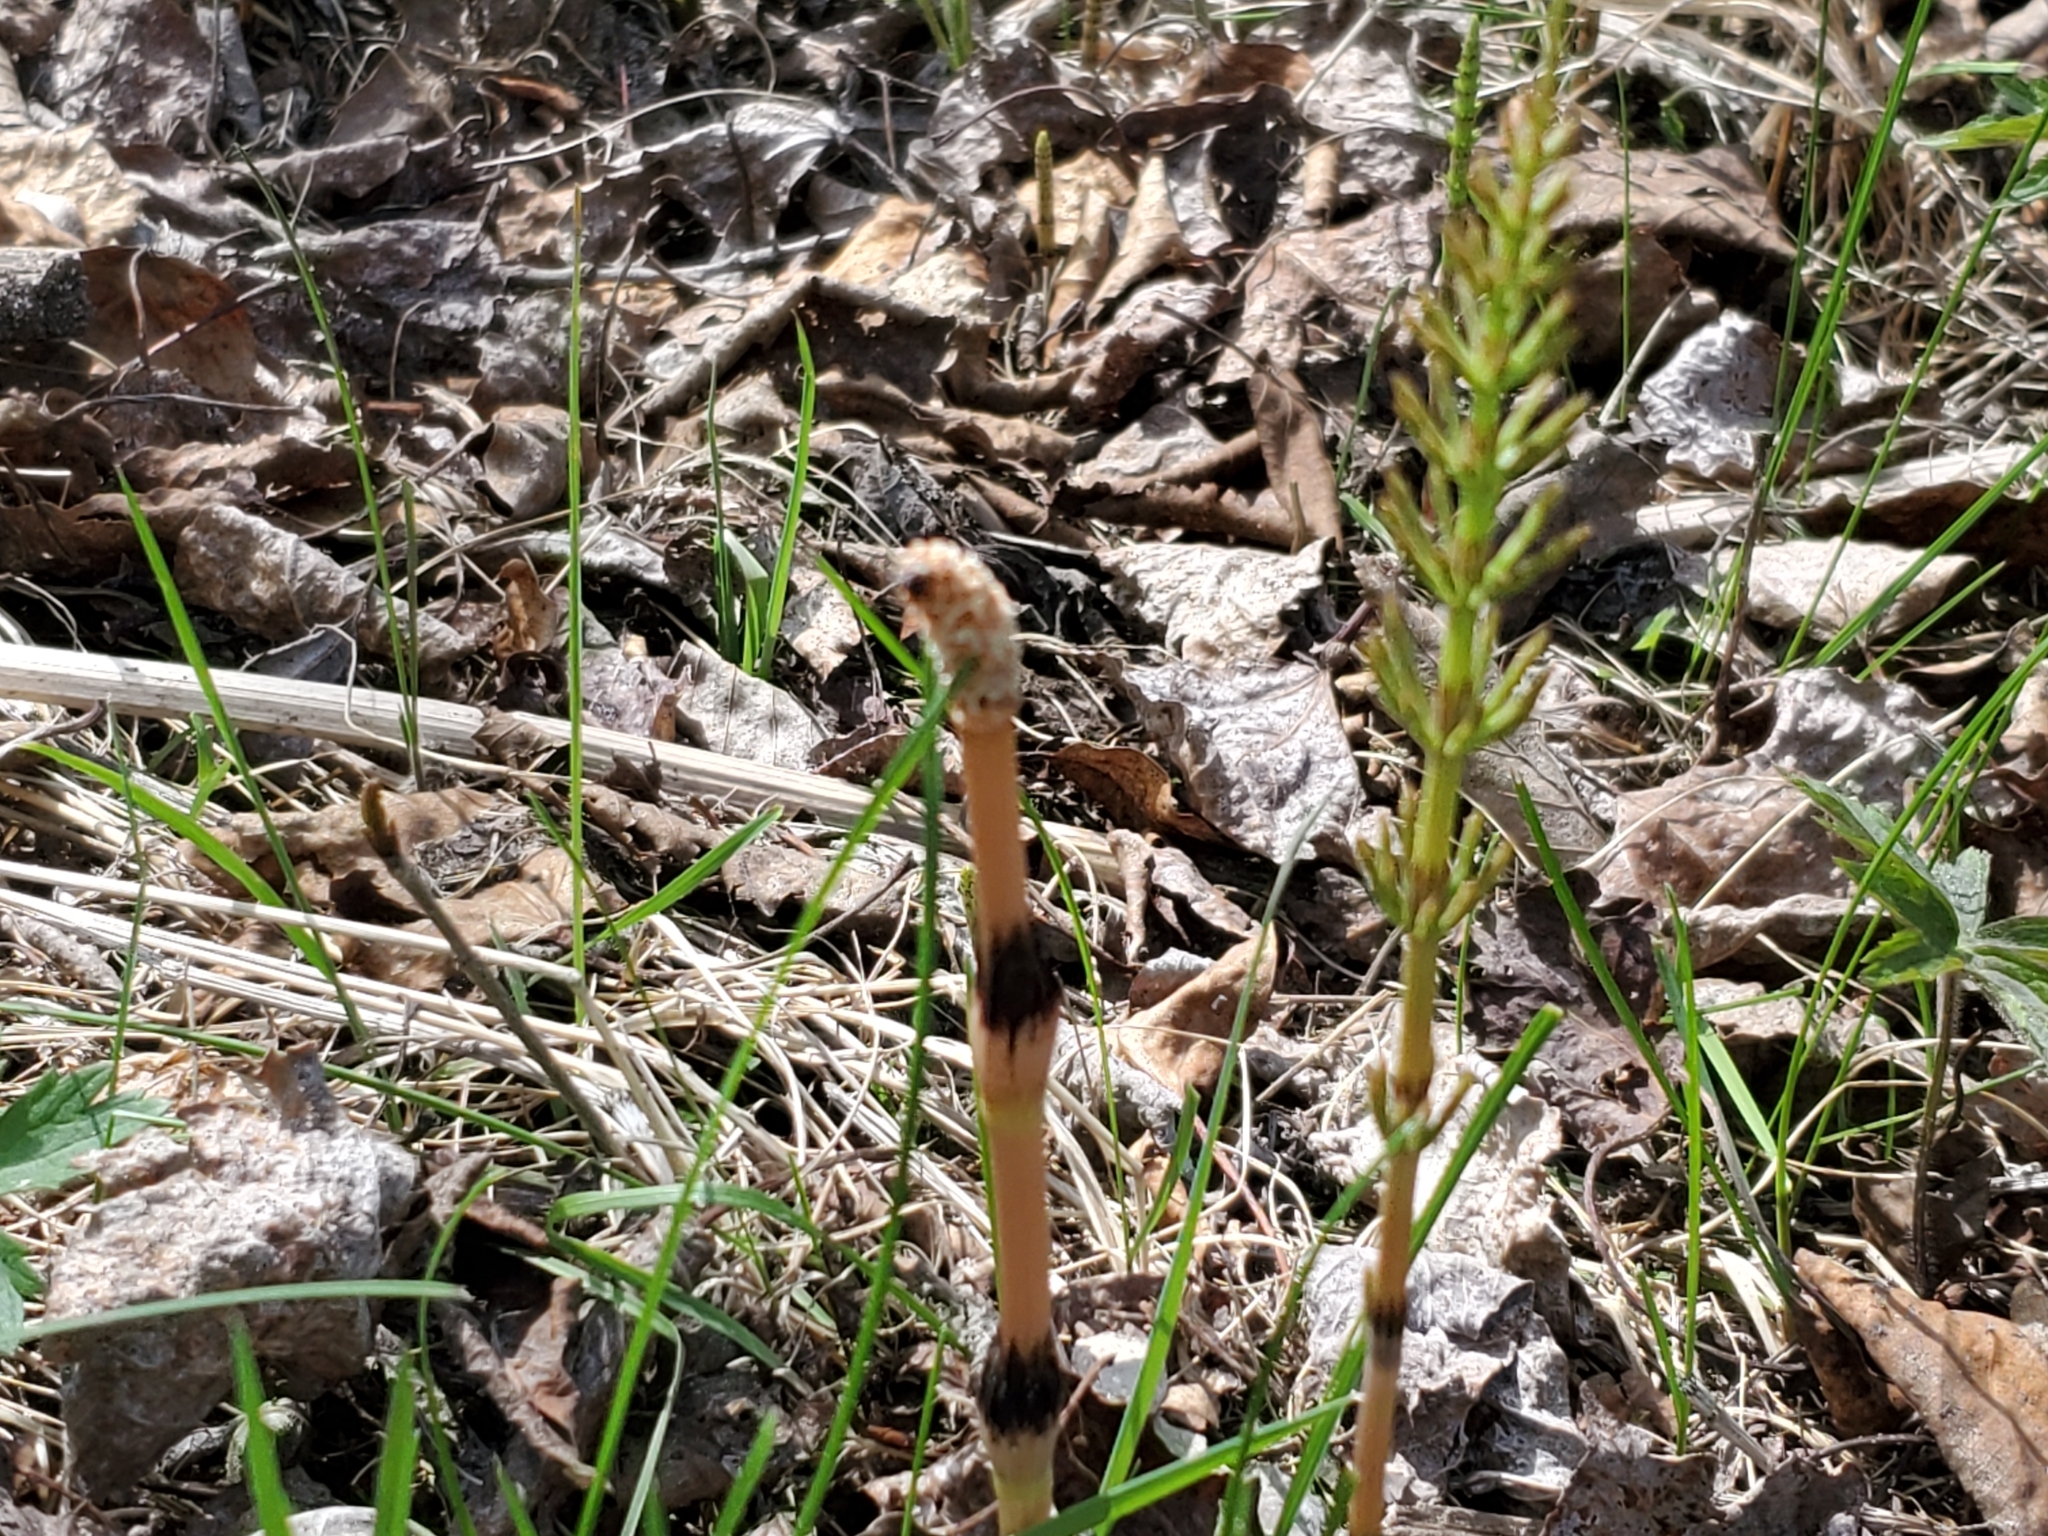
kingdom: Plantae
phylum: Tracheophyta
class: Polypodiopsida
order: Equisetales
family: Equisetaceae
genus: Equisetum
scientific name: Equisetum arvense
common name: Field horsetail
